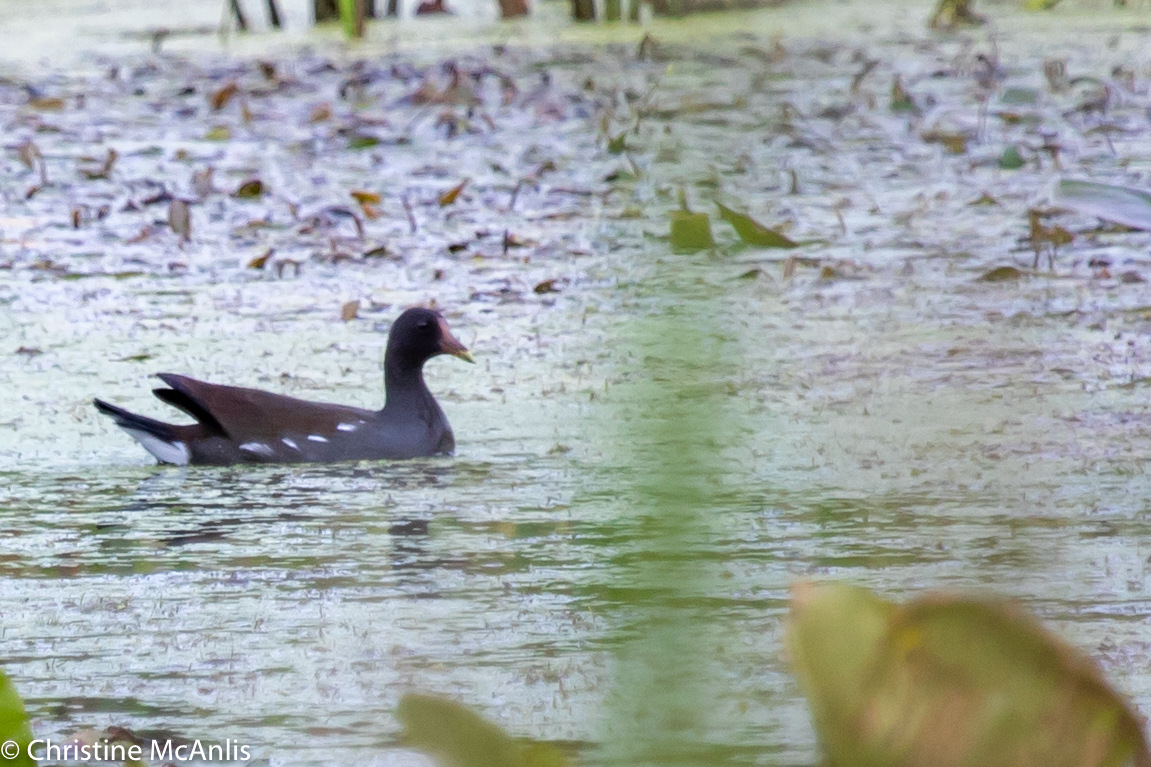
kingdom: Animalia
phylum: Chordata
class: Aves
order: Gruiformes
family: Rallidae
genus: Gallinula
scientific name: Gallinula chloropus
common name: Common moorhen
